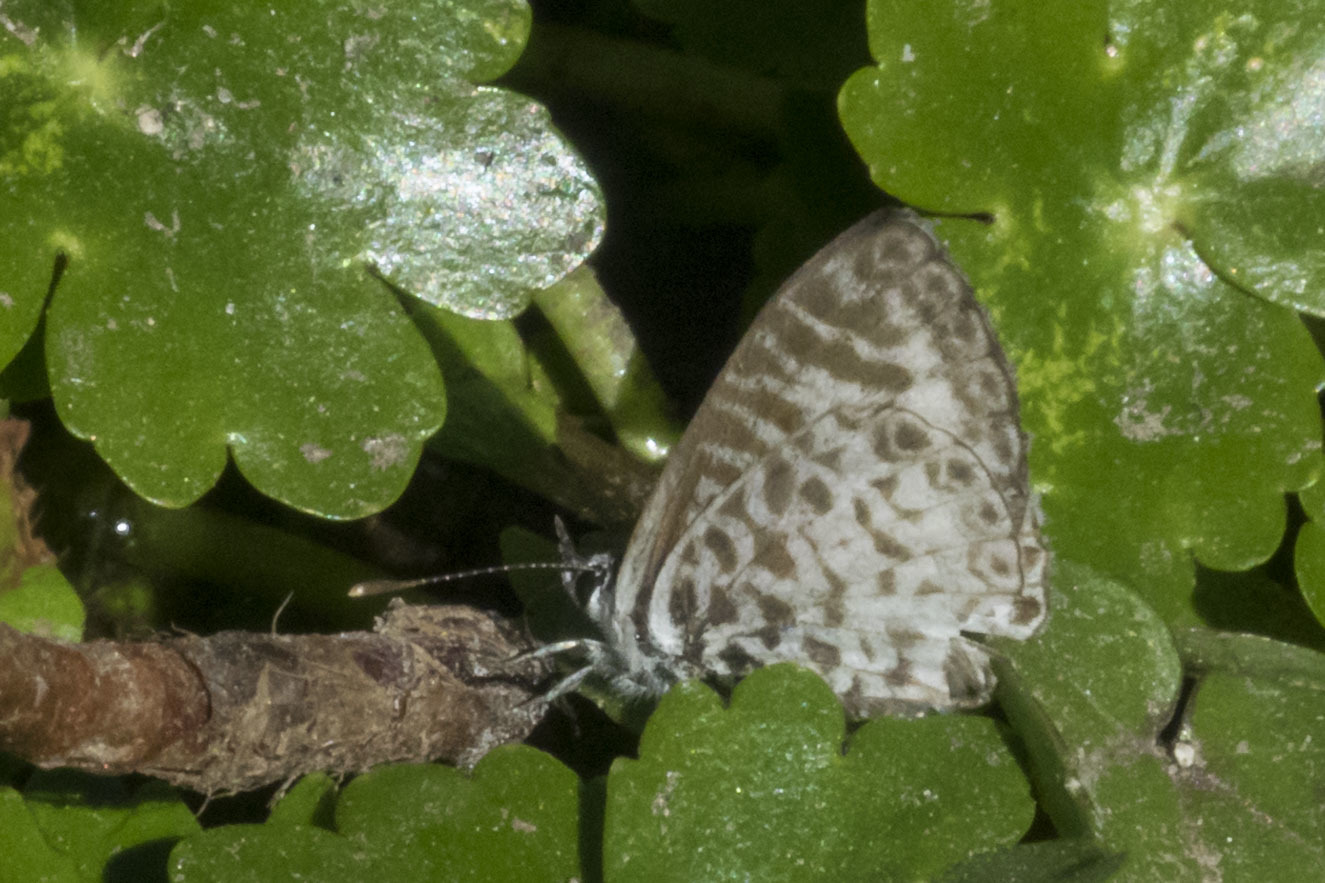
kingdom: Animalia
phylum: Arthropoda
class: Insecta
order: Lepidoptera
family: Lycaenidae
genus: Leptotes
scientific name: Leptotes cassius
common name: Cassius blue
